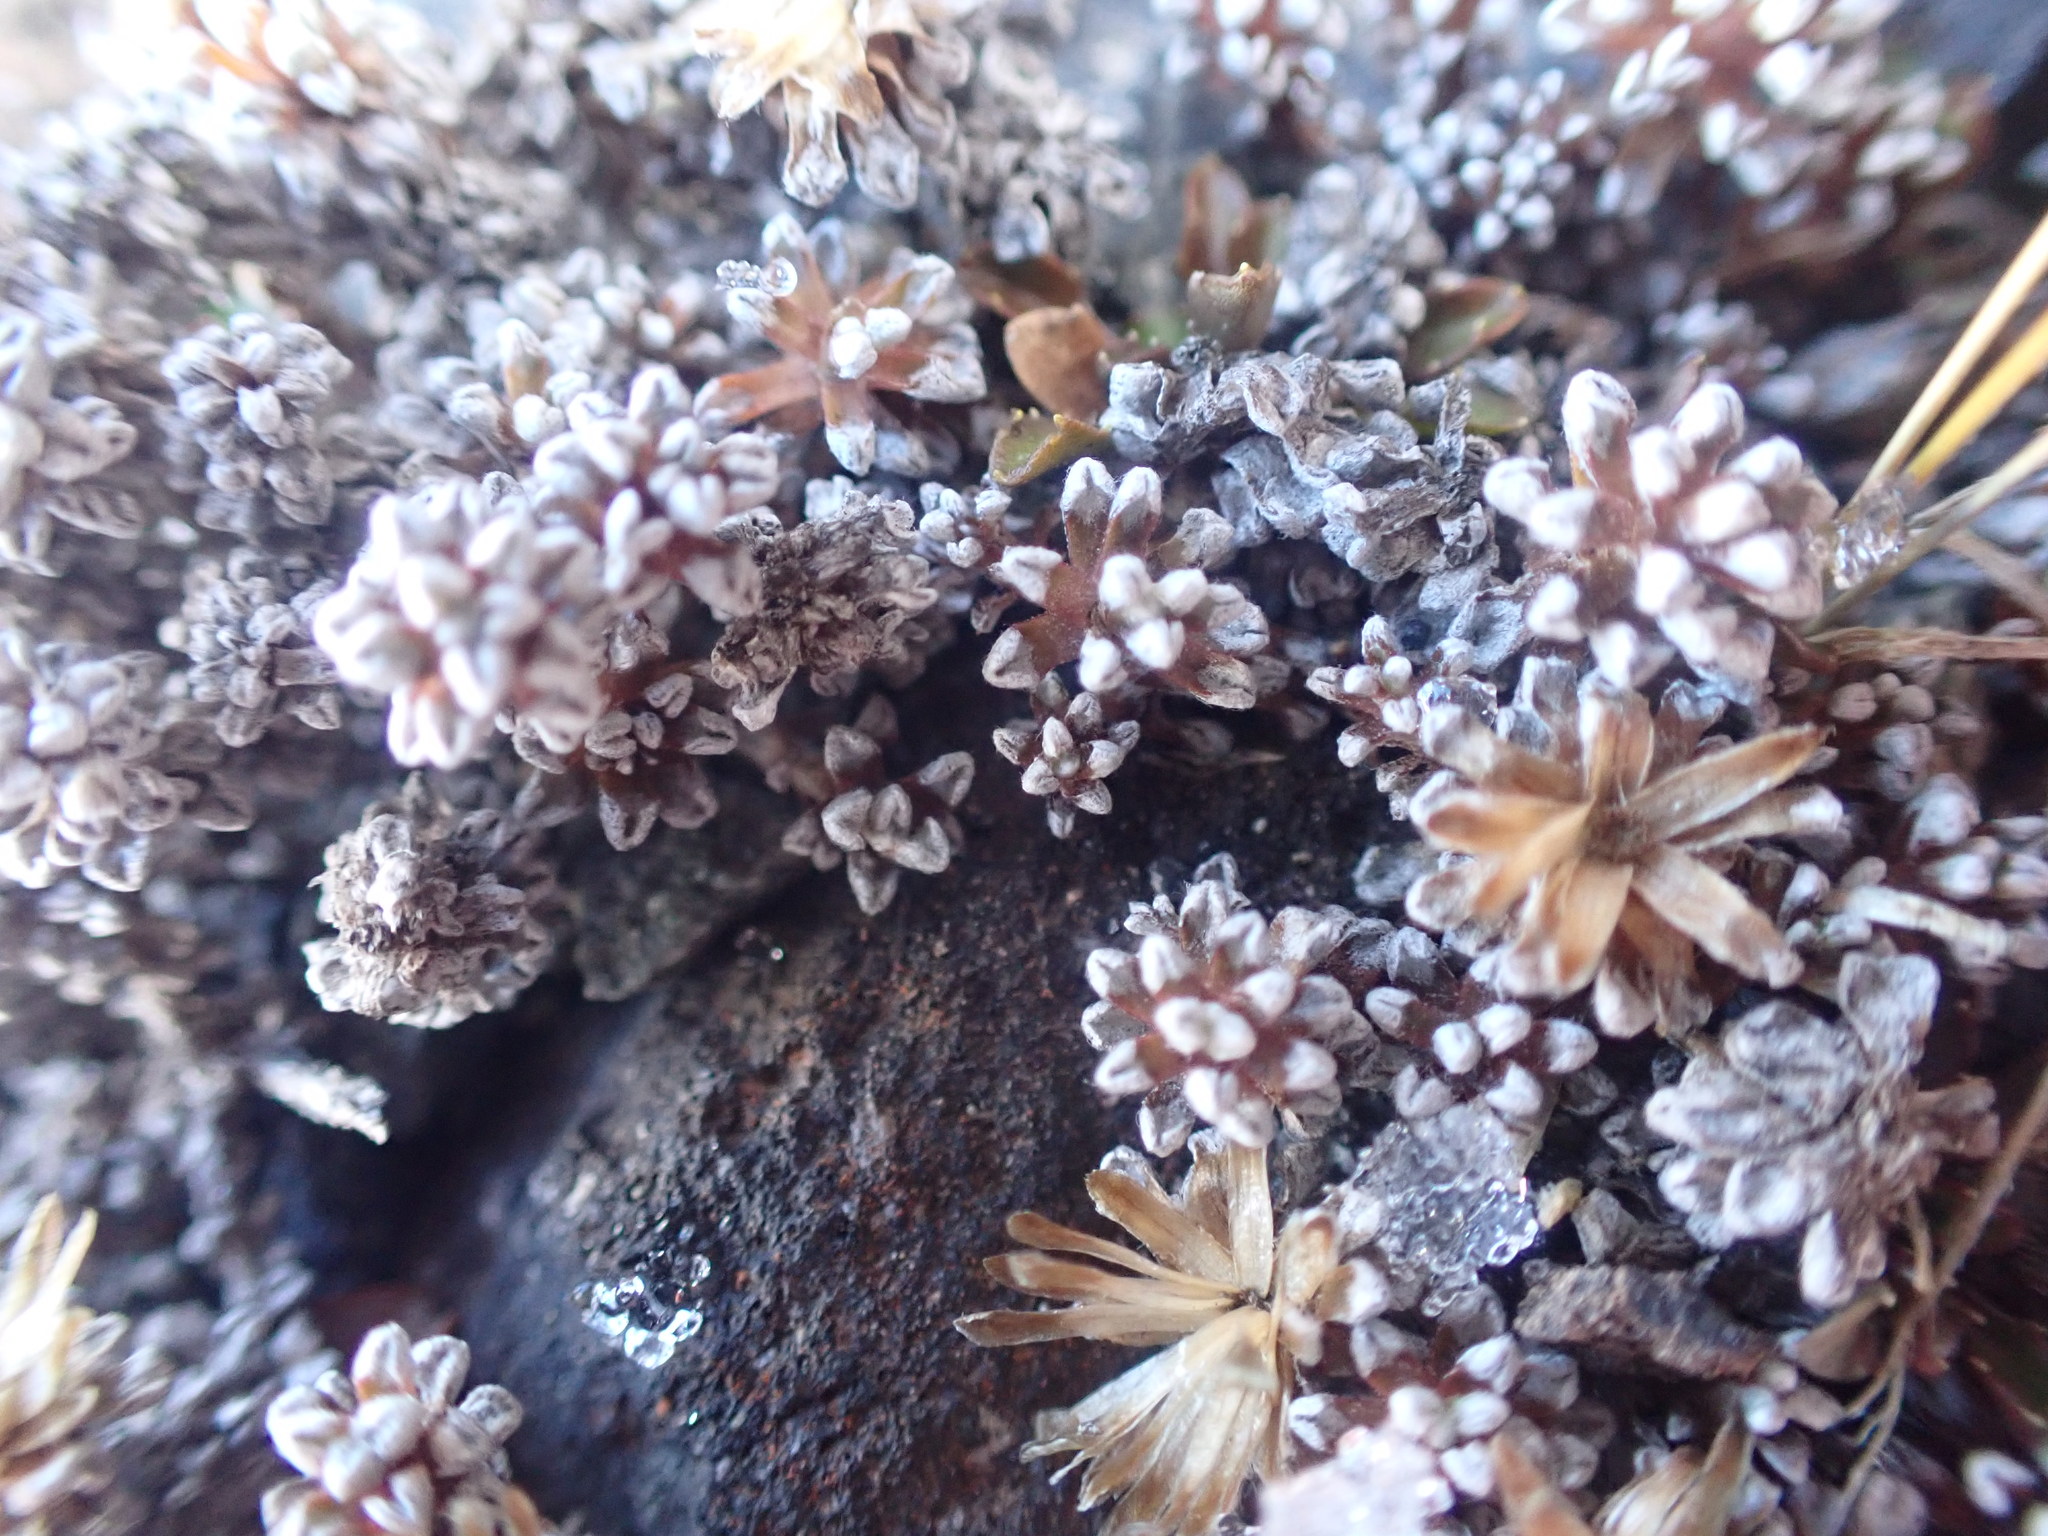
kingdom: Plantae
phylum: Tracheophyta
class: Magnoliopsida
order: Asterales
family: Asteraceae
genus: Raoulia
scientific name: Raoulia albosericea
